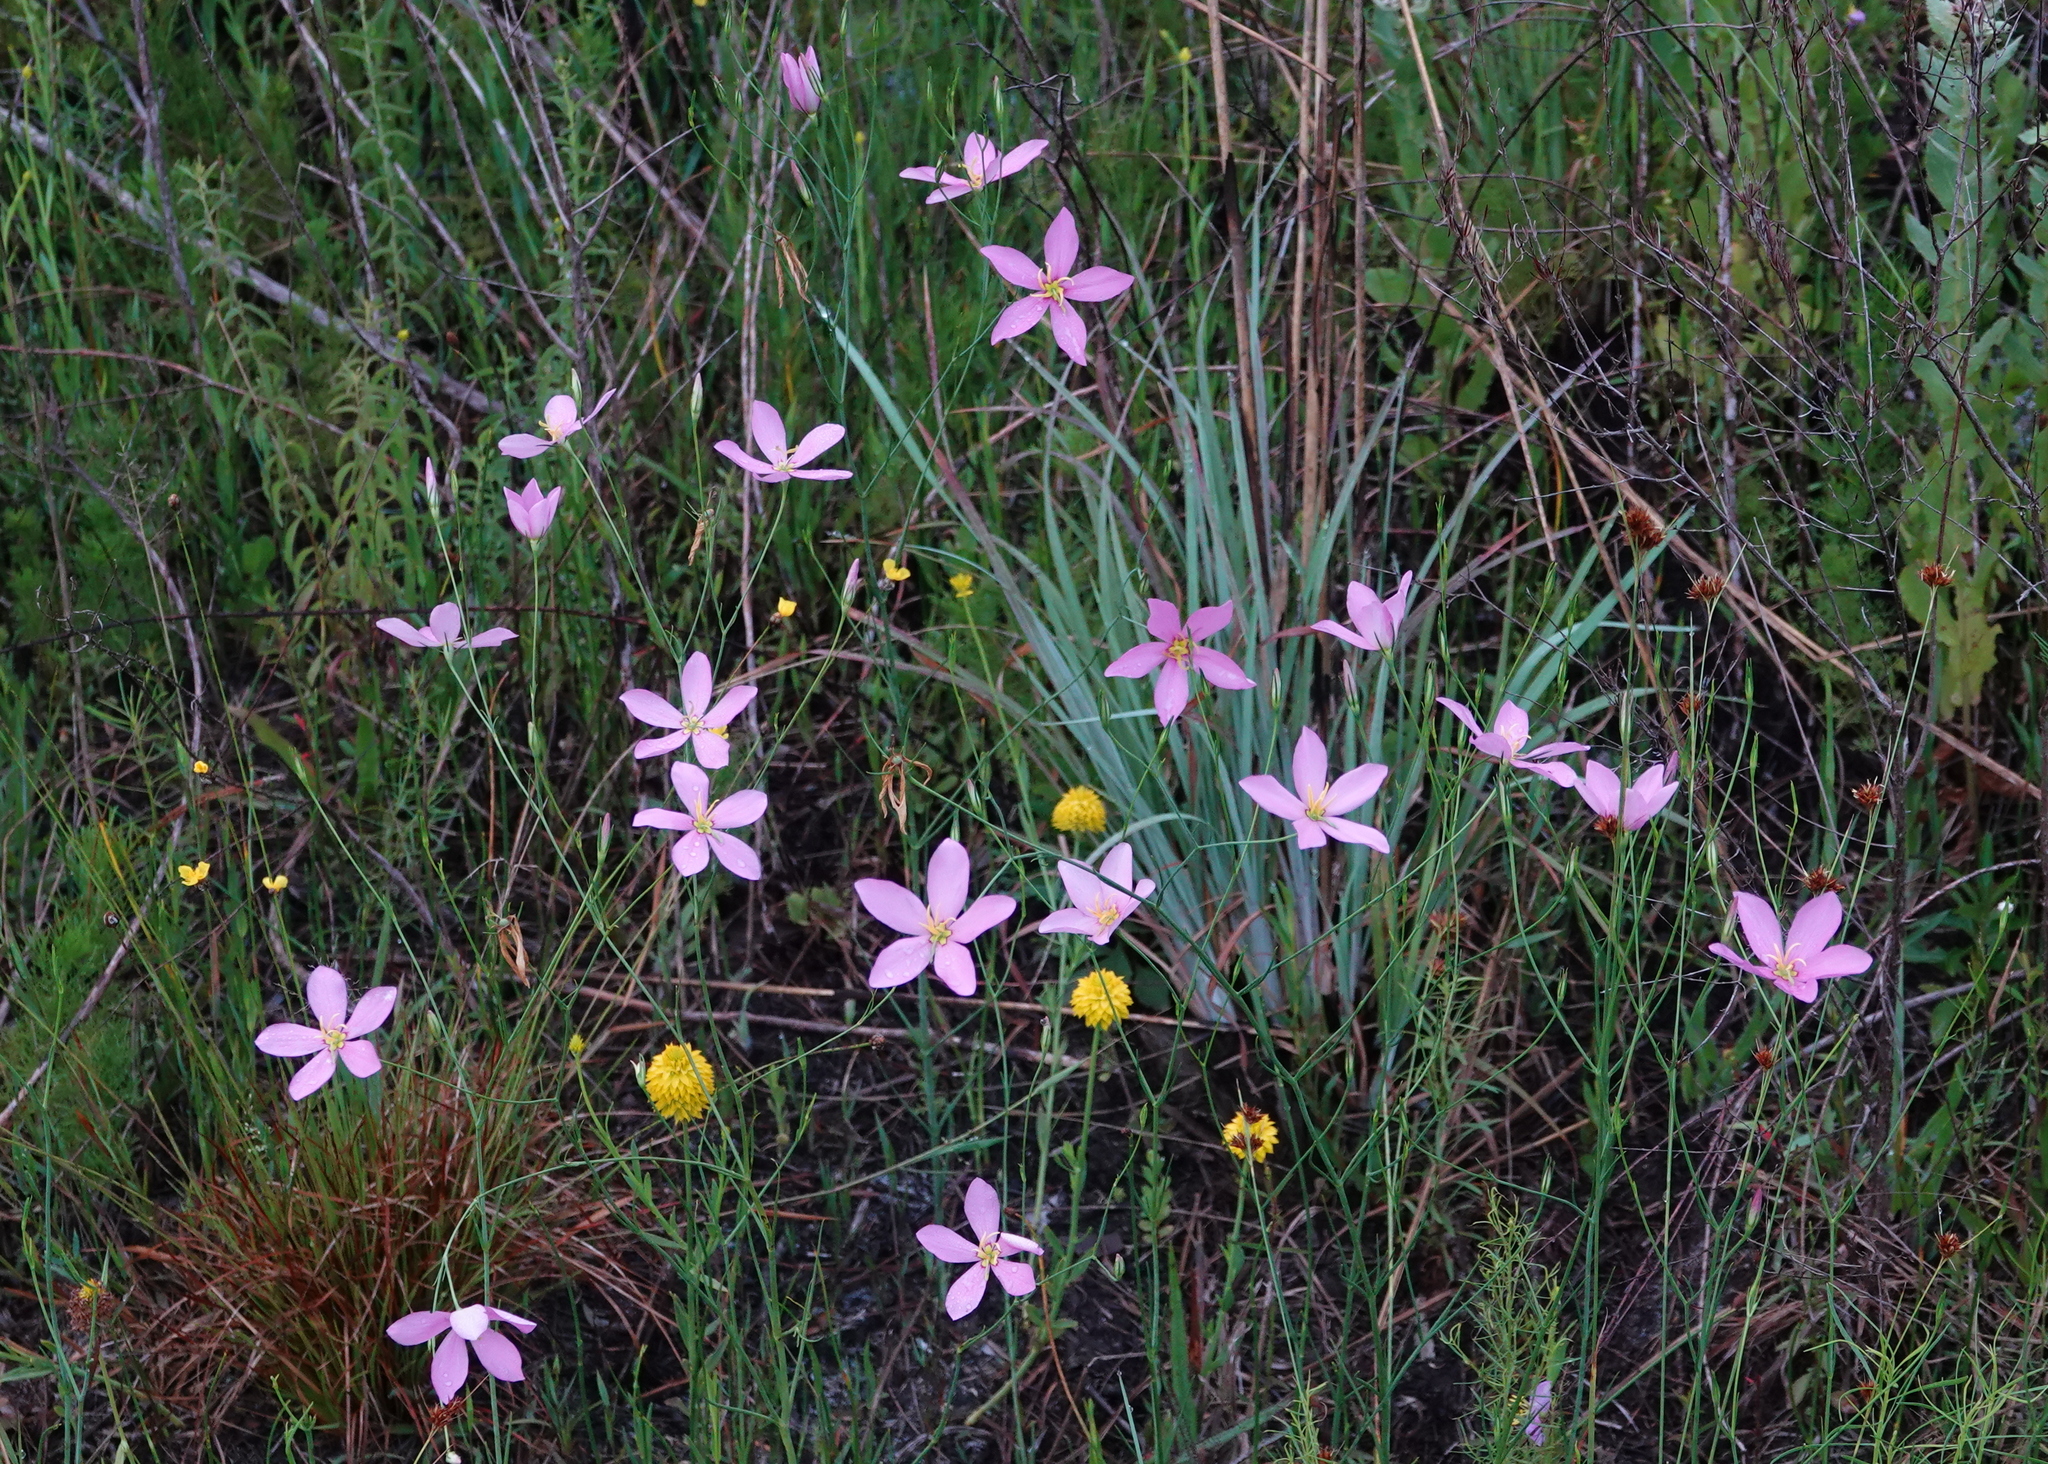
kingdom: Plantae
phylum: Tracheophyta
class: Magnoliopsida
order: Gentianales
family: Gentianaceae
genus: Sabatia
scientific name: Sabatia grandiflora
